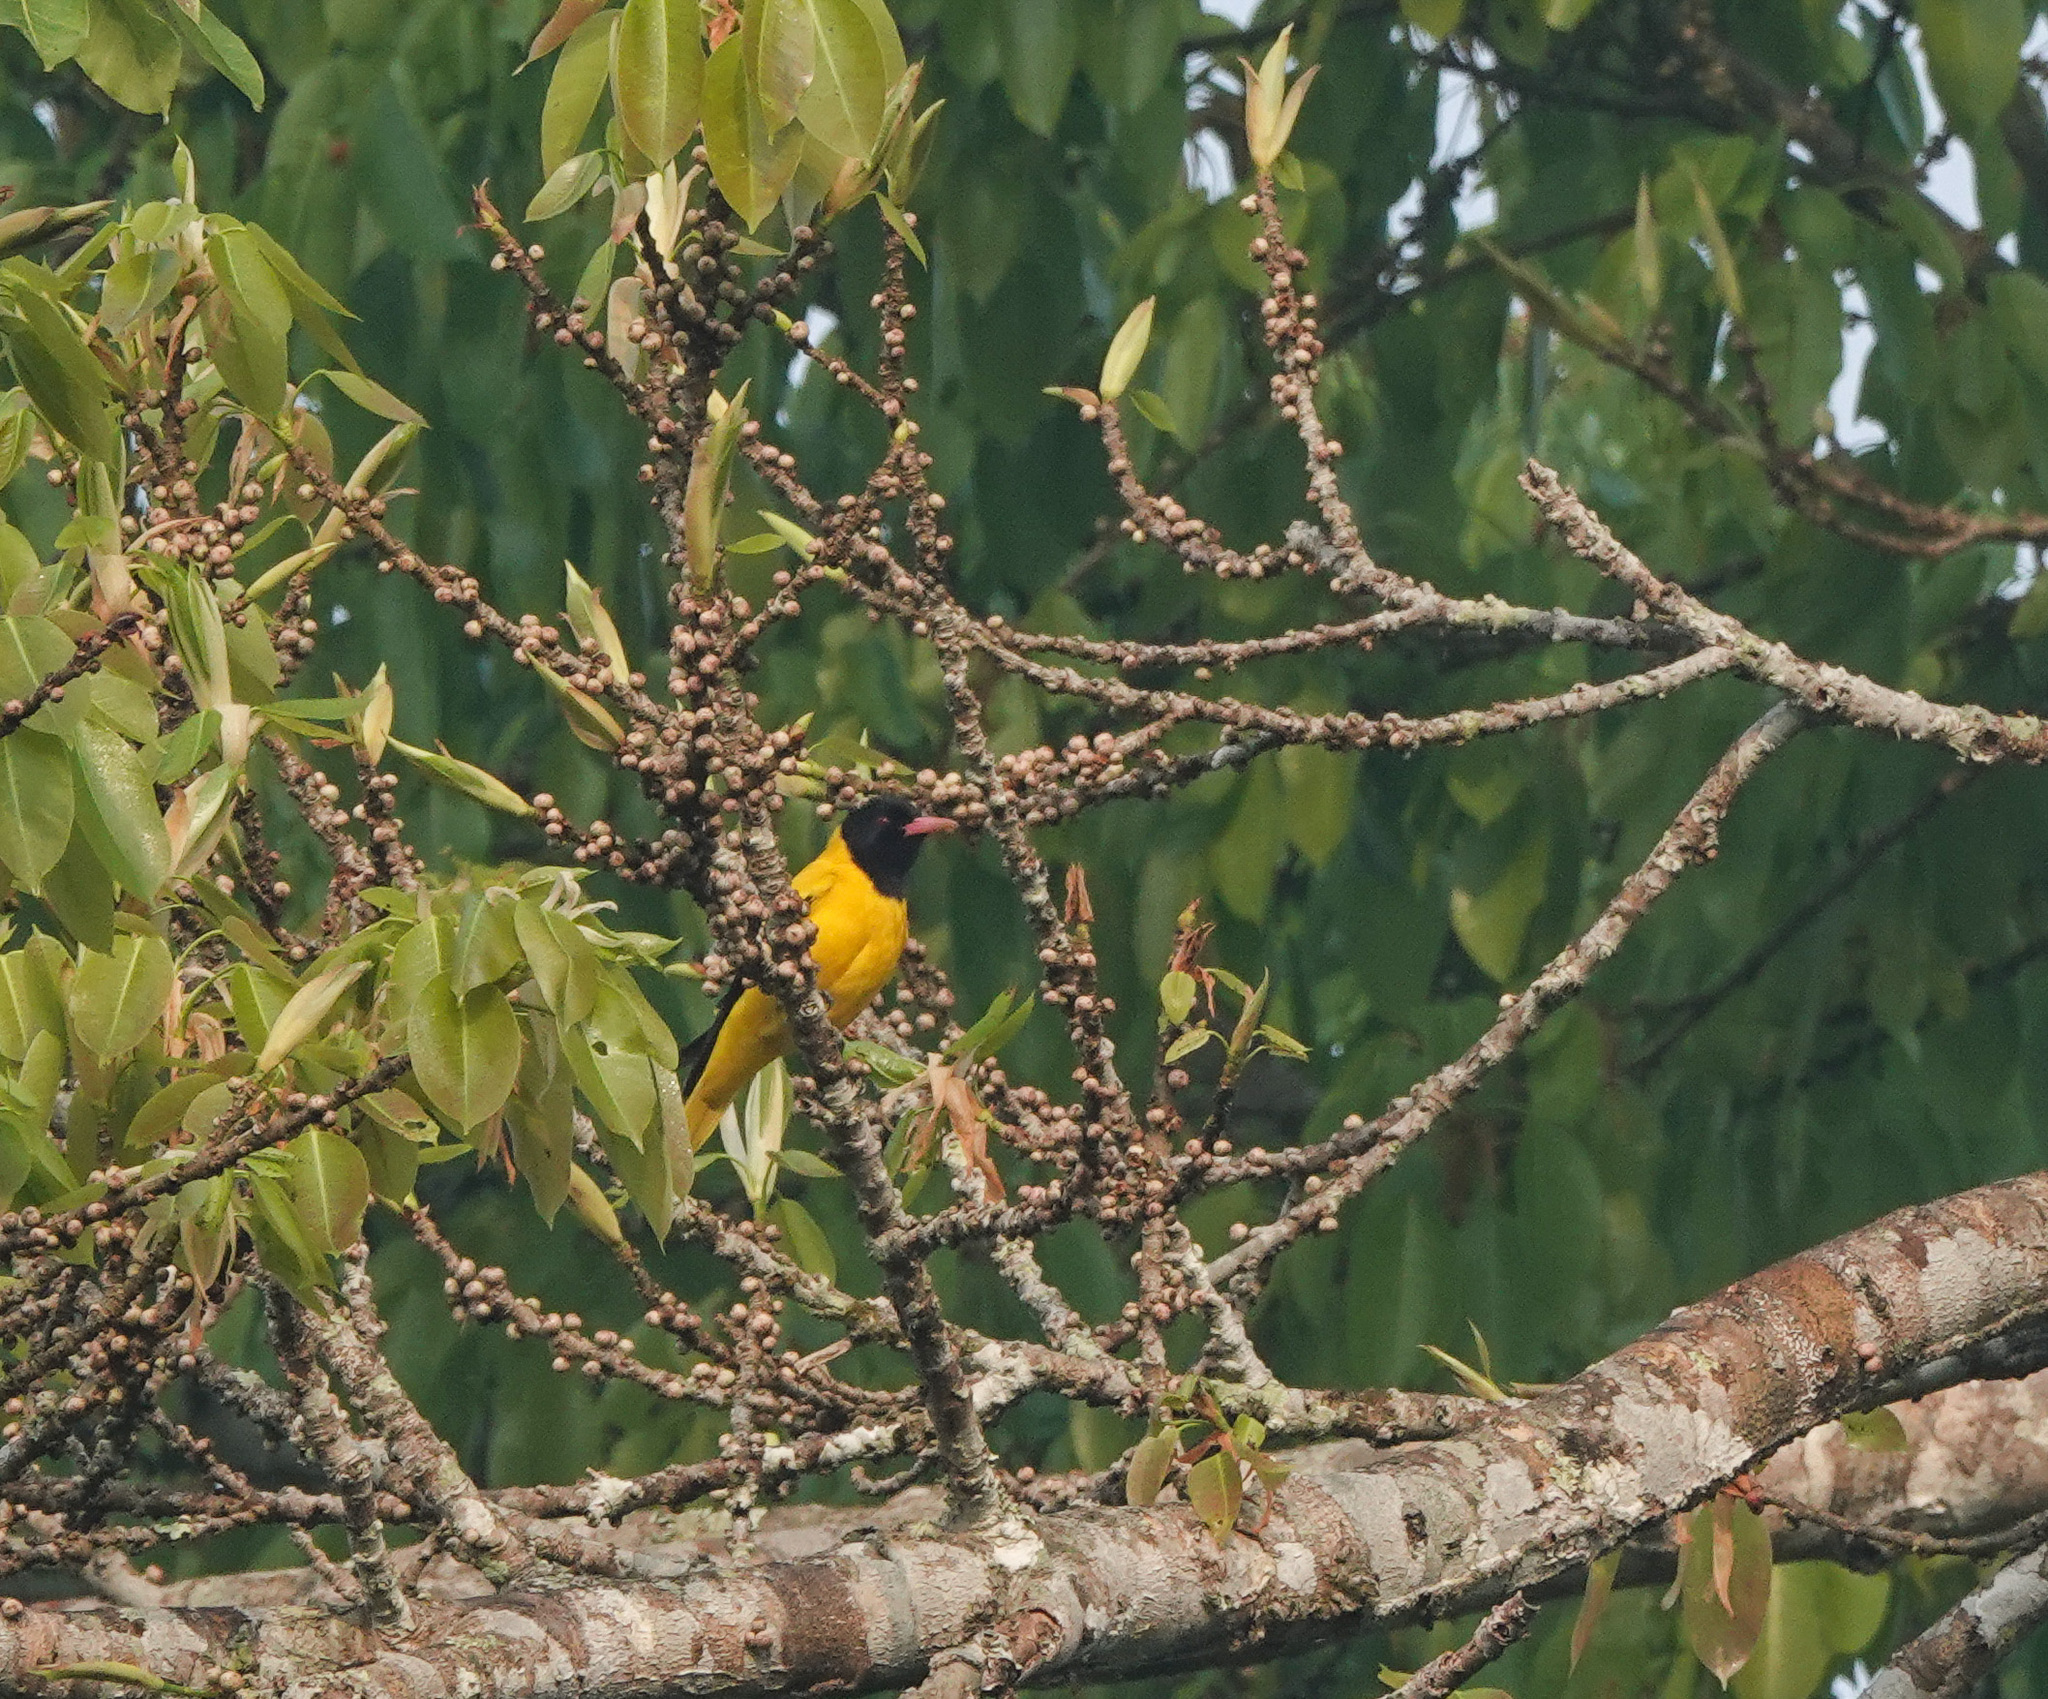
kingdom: Animalia
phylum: Chordata
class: Aves
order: Passeriformes
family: Oriolidae
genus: Oriolus
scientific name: Oriolus xanthornus
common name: Black-hooded oriole
